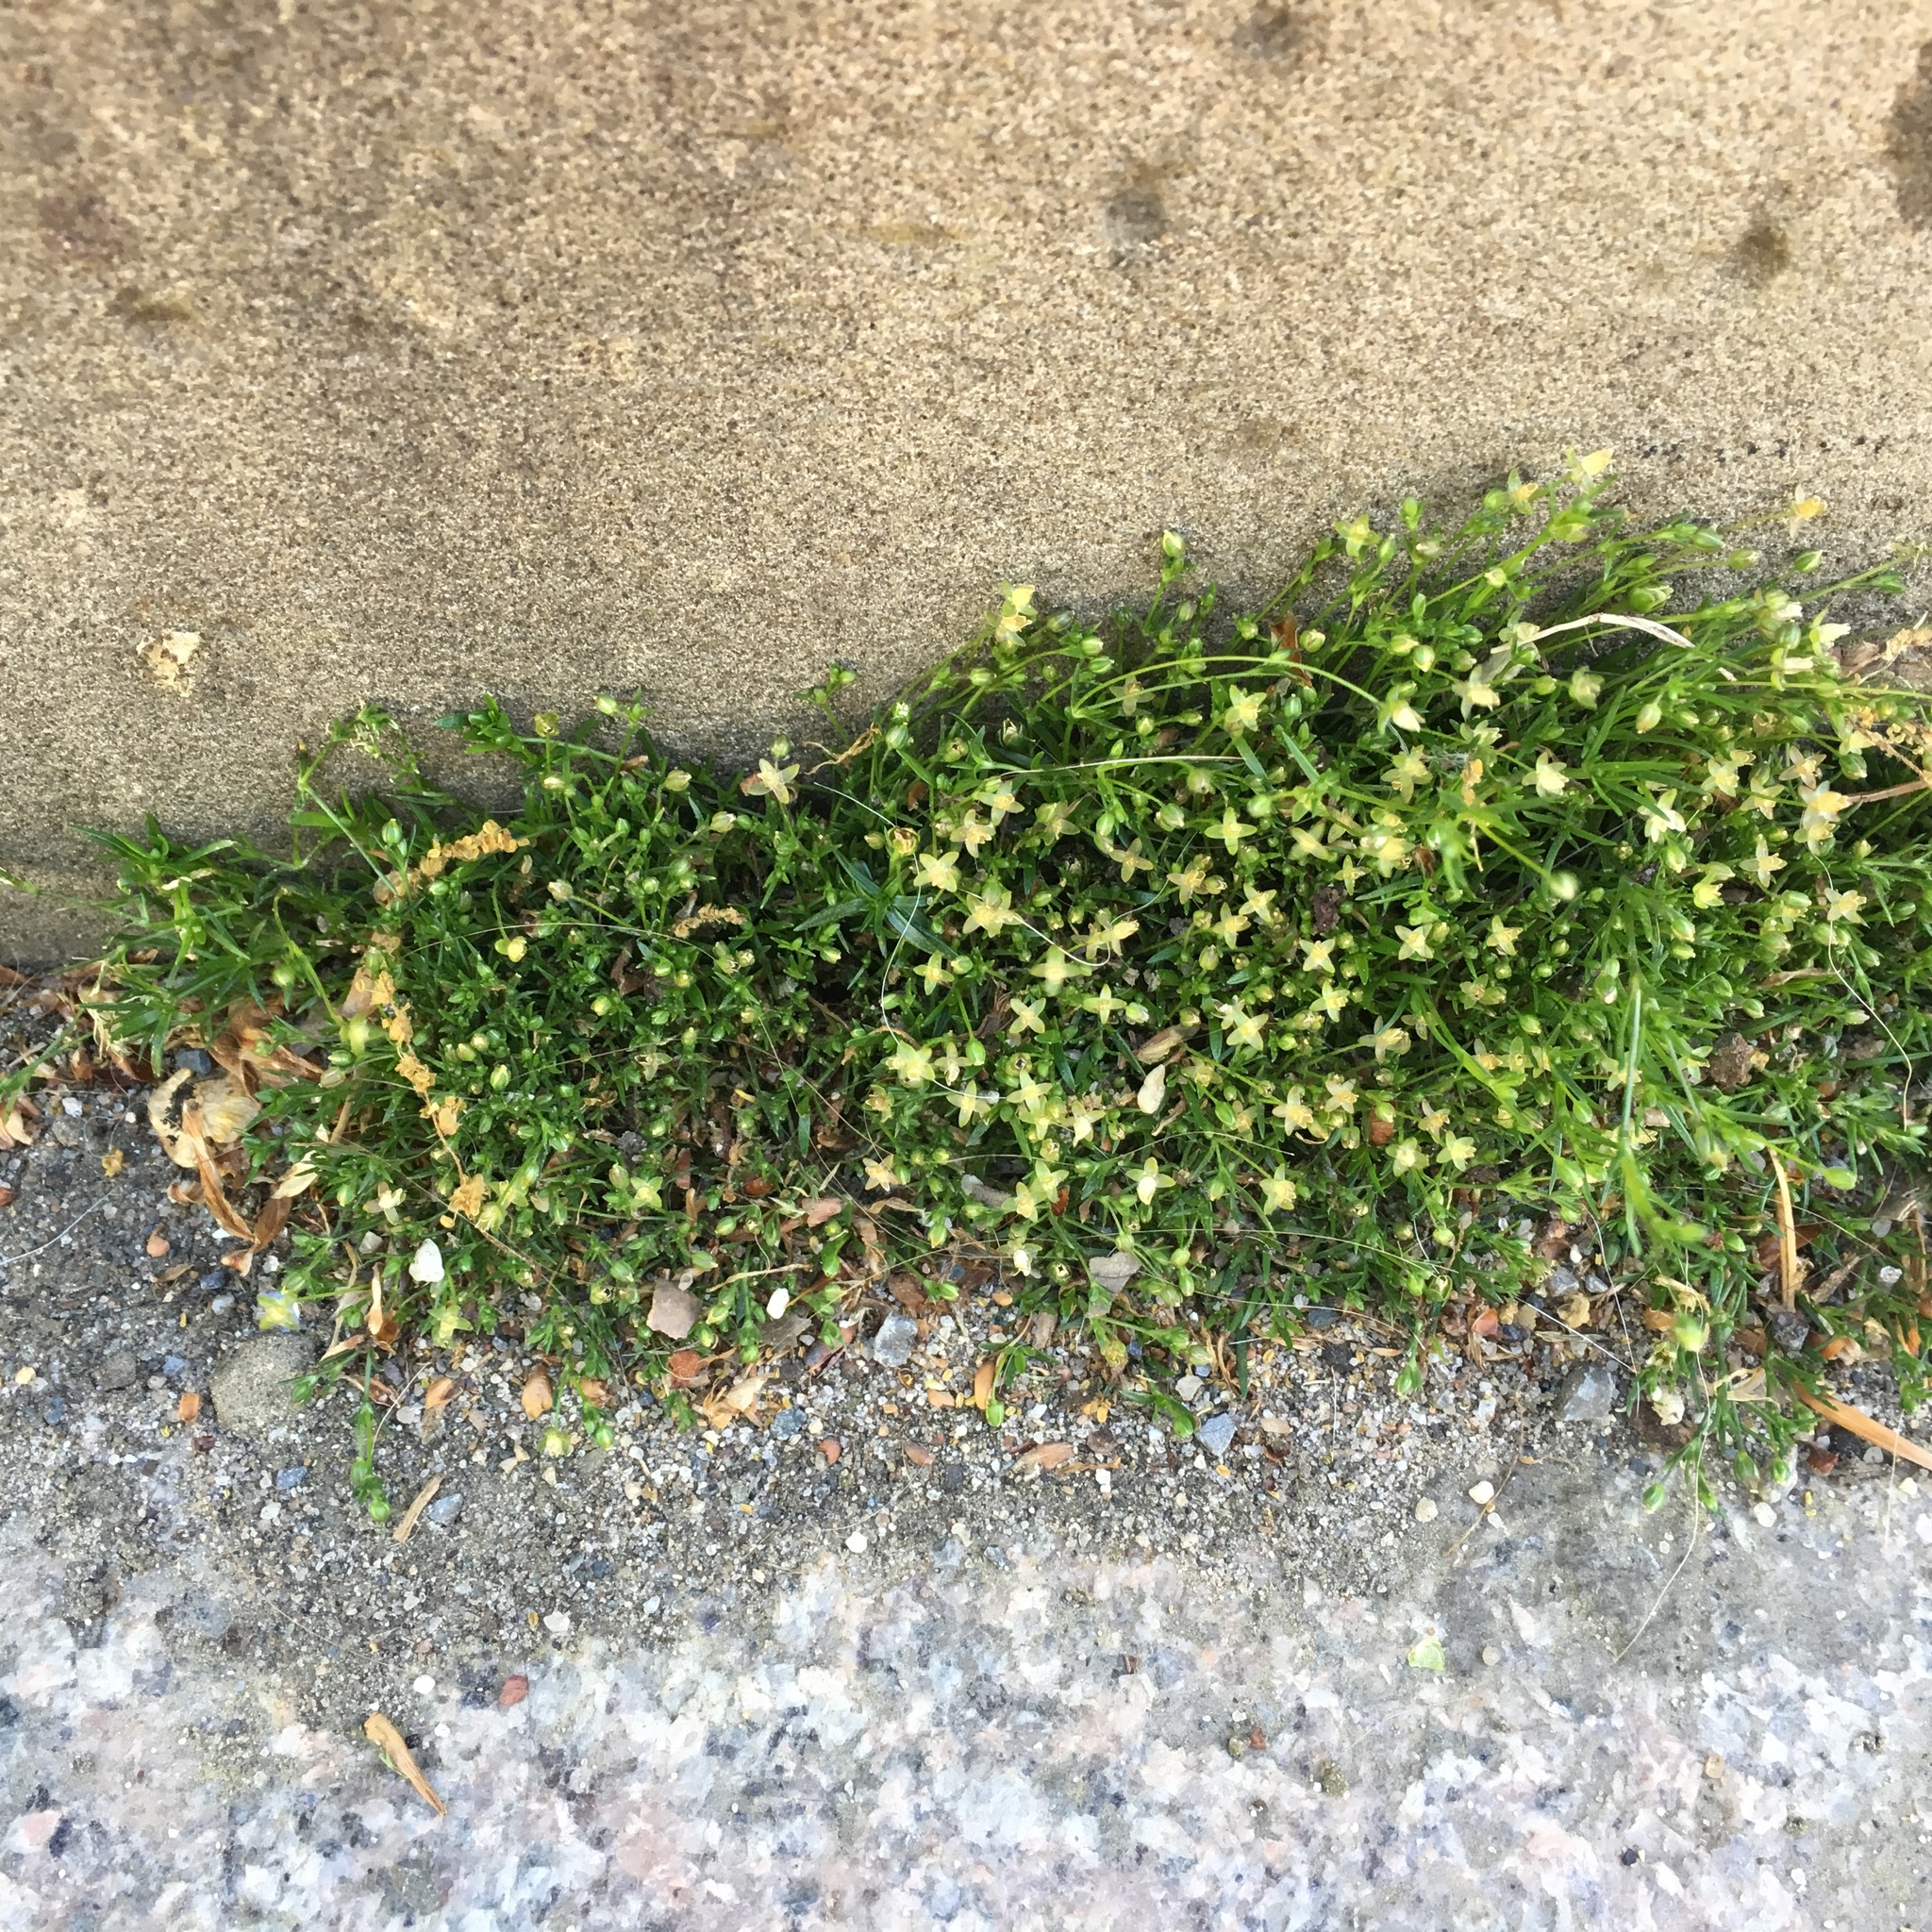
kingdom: Plantae
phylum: Tracheophyta
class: Magnoliopsida
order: Caryophyllales
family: Caryophyllaceae
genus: Sagina
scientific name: Sagina procumbens
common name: Procumbent pearlwort
